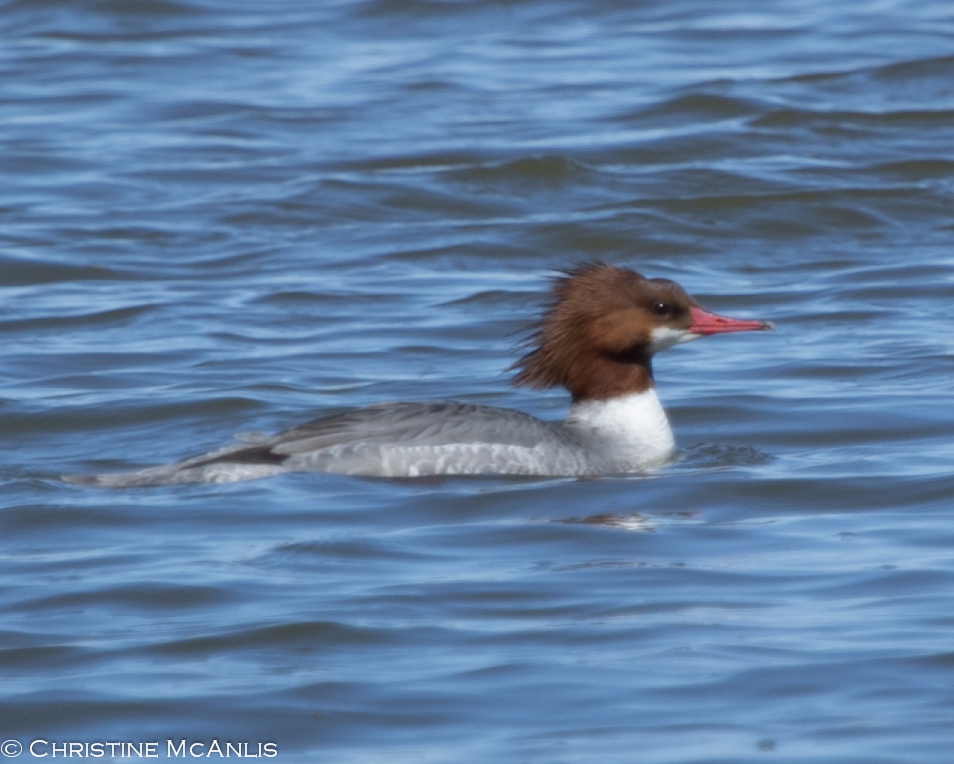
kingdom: Animalia
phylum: Chordata
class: Aves
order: Anseriformes
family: Anatidae
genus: Mergus
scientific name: Mergus merganser
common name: Common merganser
